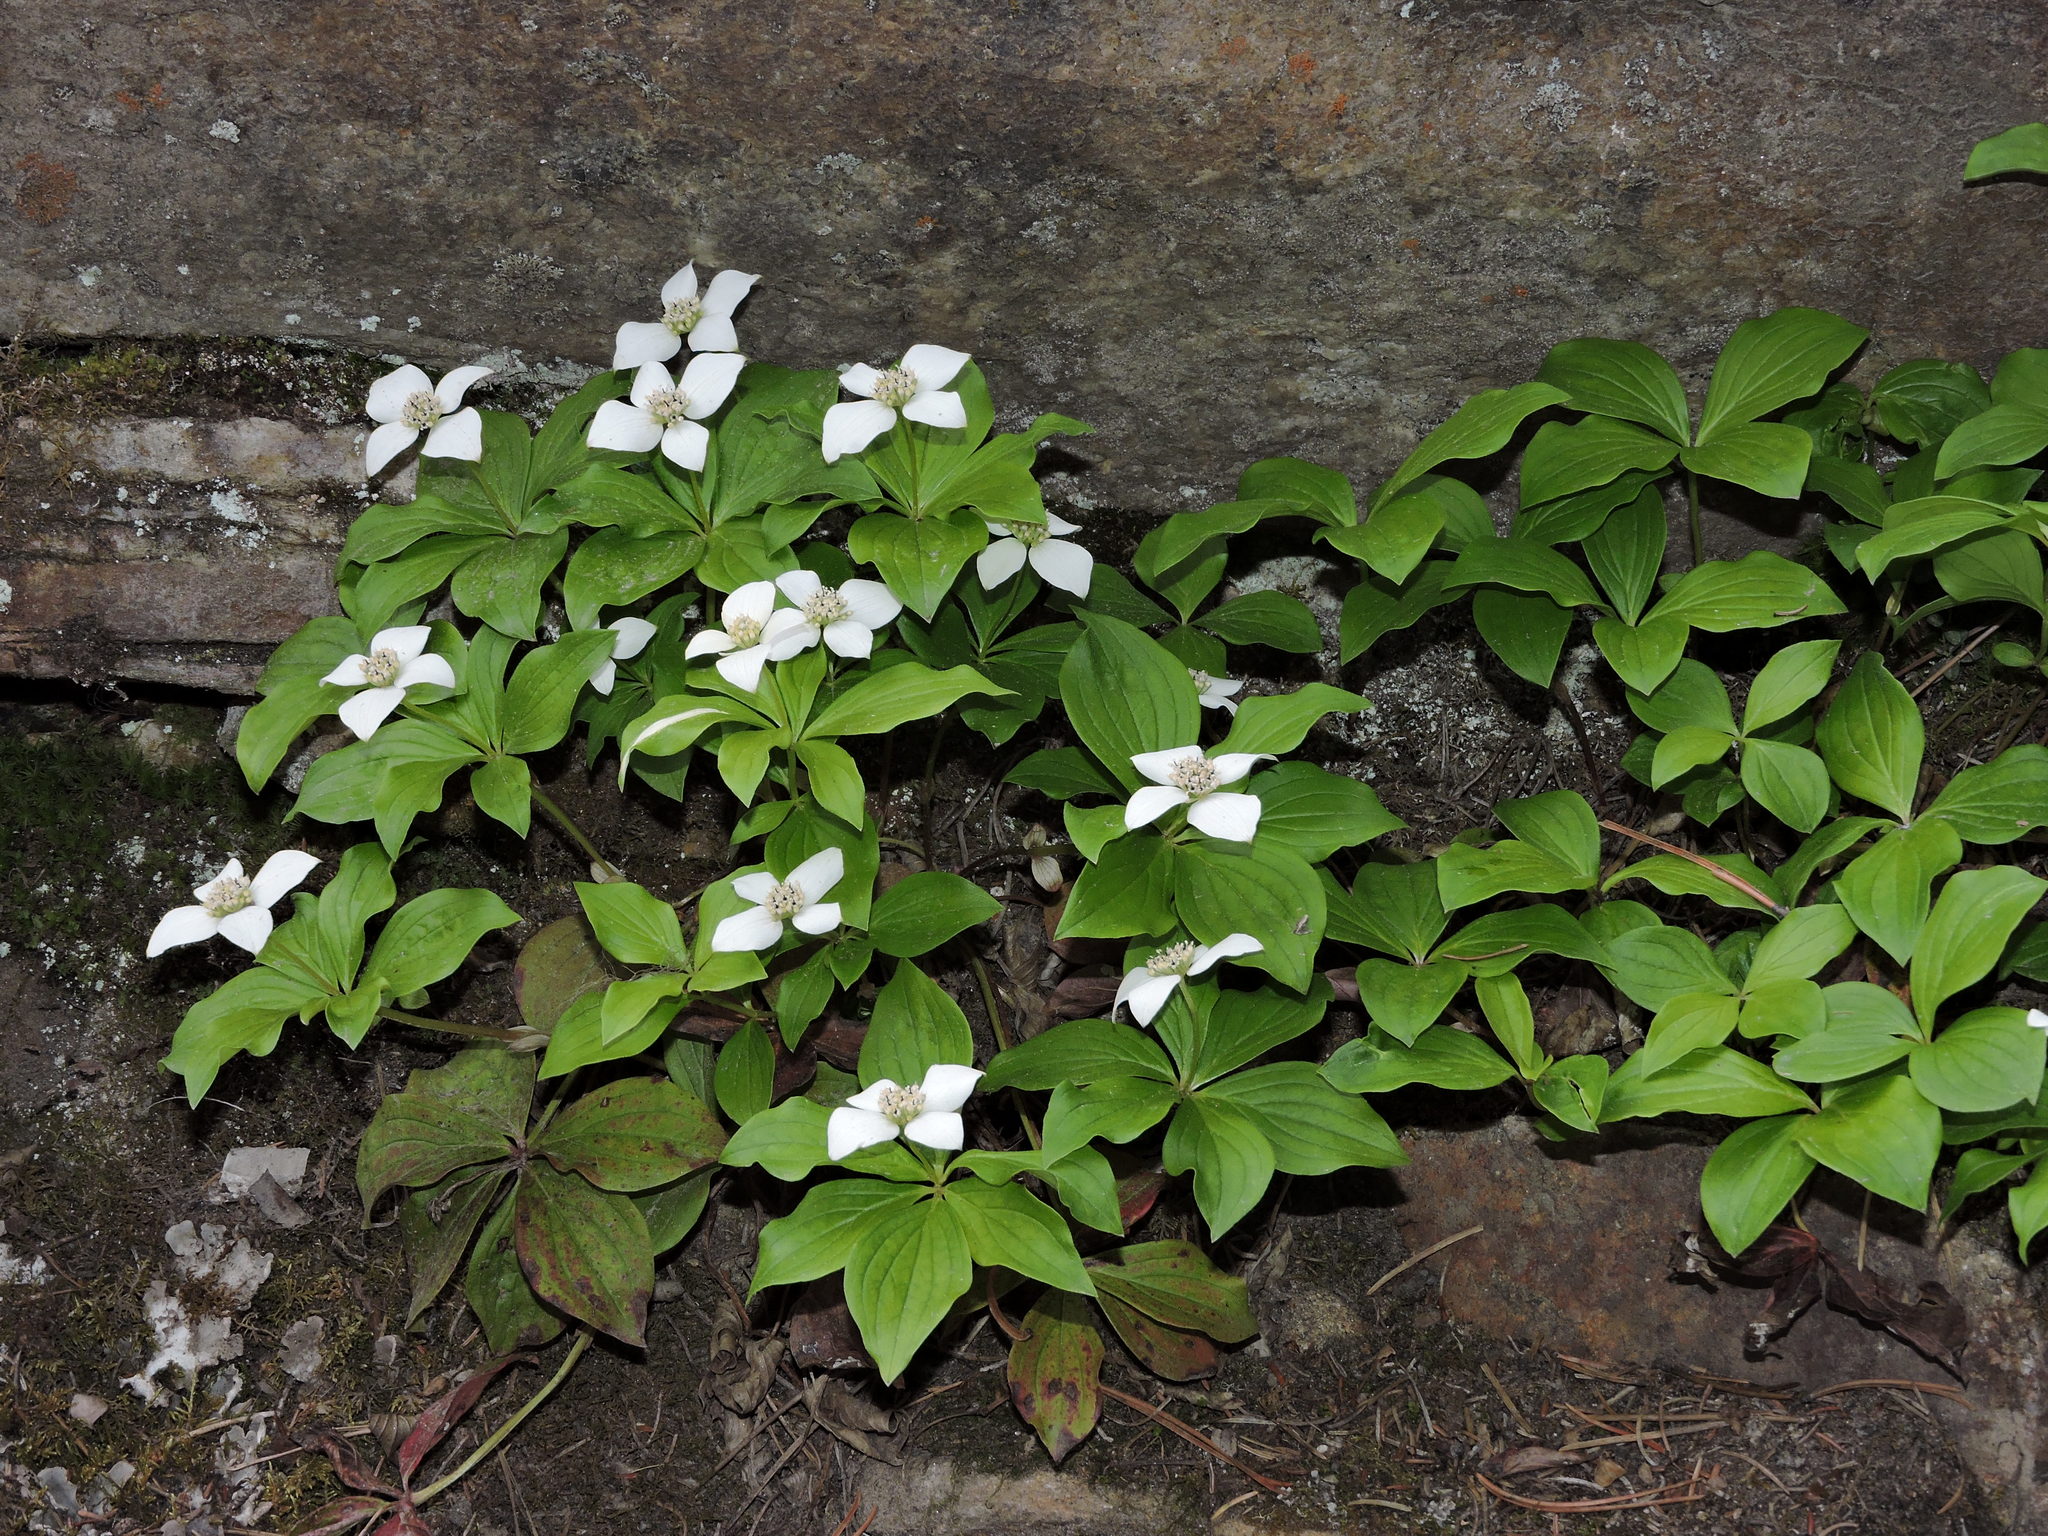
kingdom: Plantae
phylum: Tracheophyta
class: Magnoliopsida
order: Cornales
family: Cornaceae
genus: Cornus
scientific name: Cornus canadensis
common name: Creeping dogwood
